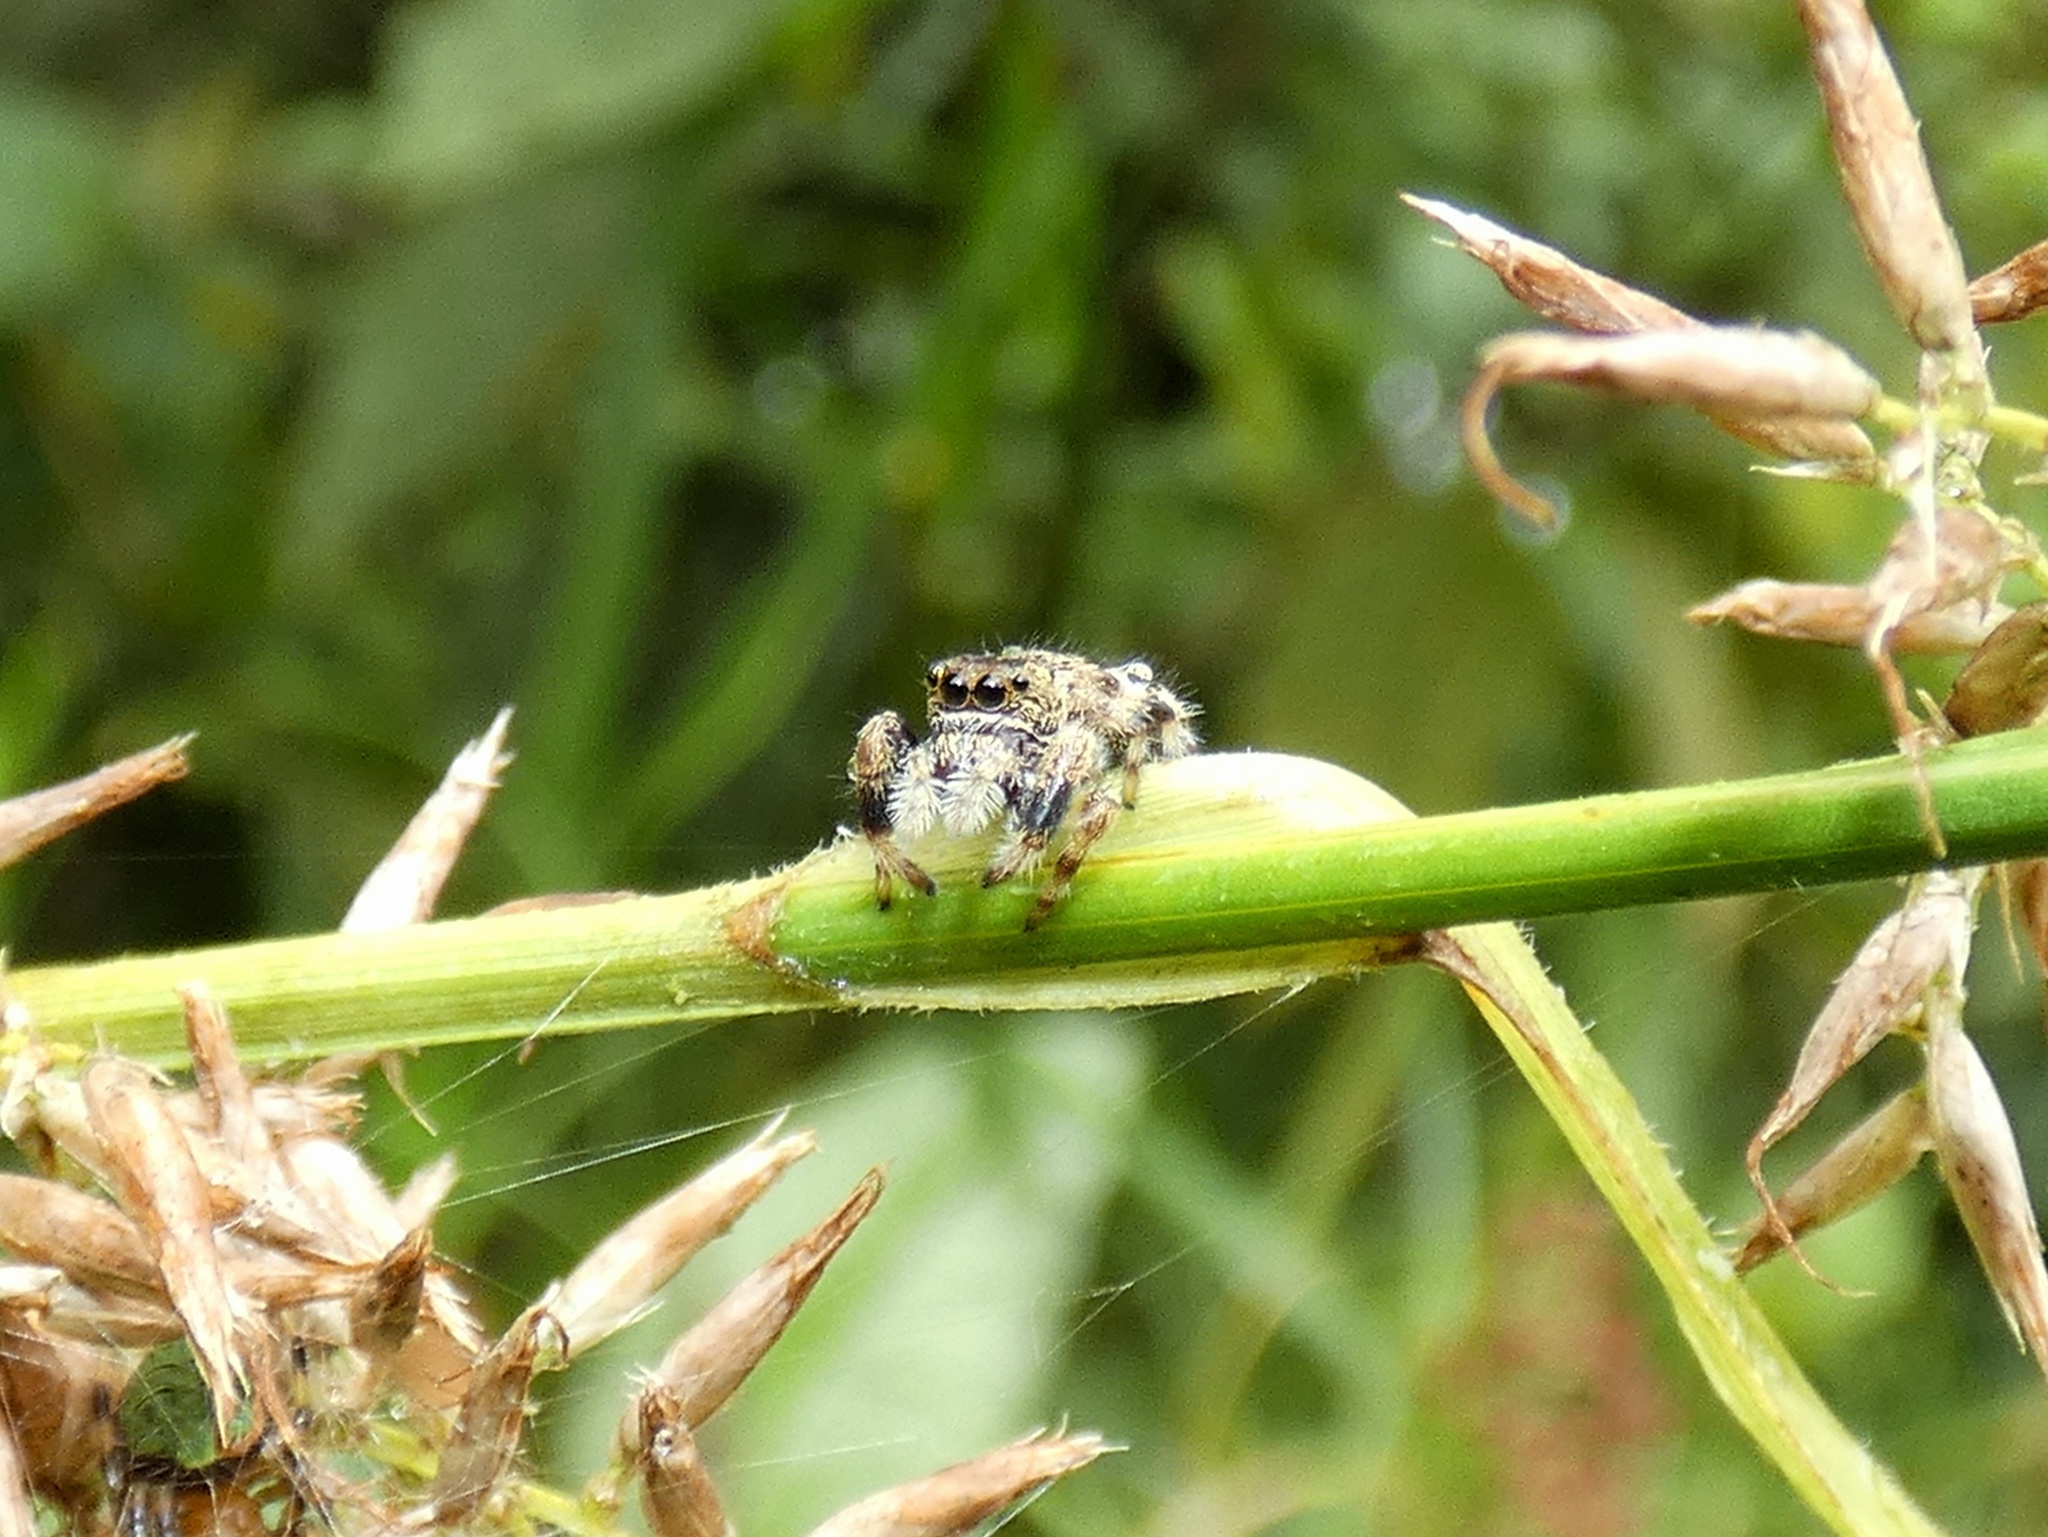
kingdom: Animalia
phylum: Arthropoda
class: Arachnida
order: Araneae
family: Salticidae
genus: Parnaenus
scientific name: Parnaenus cyanidens
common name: Jumping spiders
